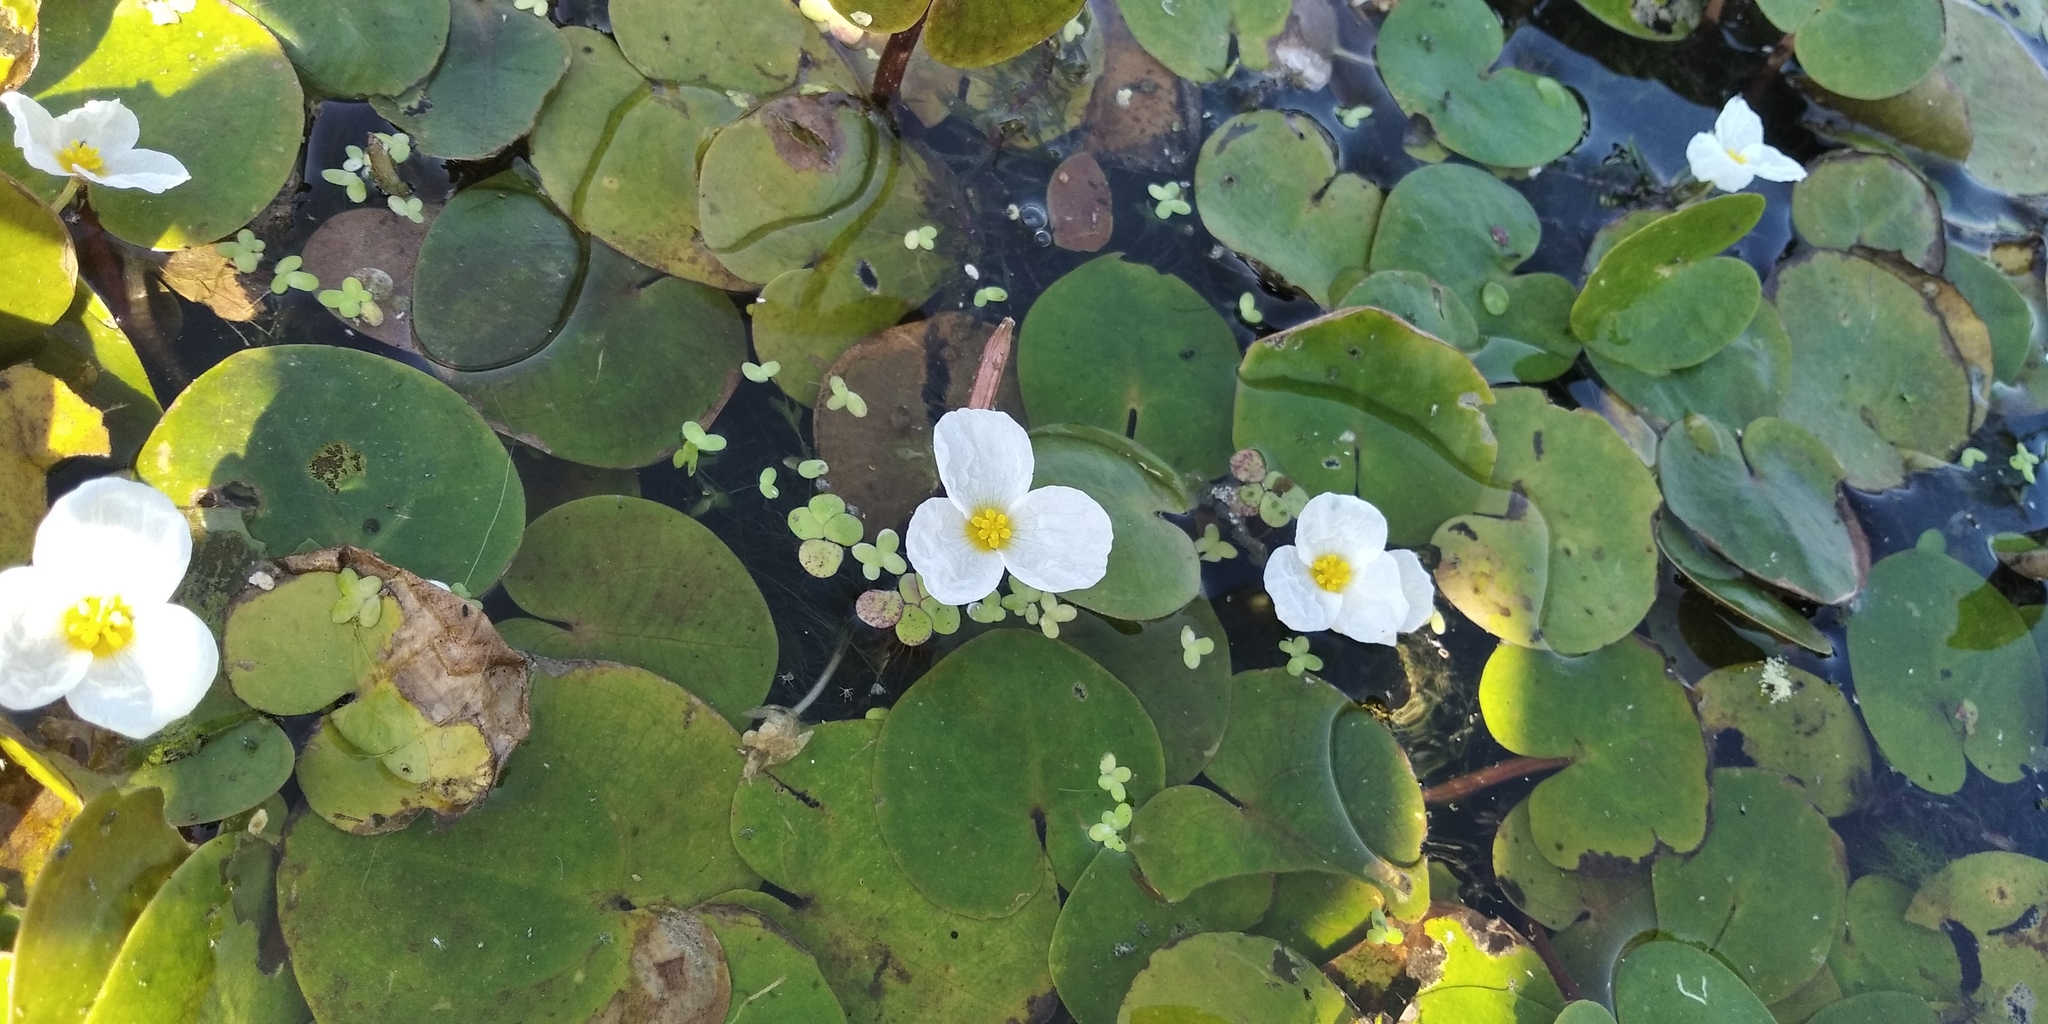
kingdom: Plantae
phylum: Tracheophyta
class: Liliopsida
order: Alismatales
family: Hydrocharitaceae
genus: Hydrocharis
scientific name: Hydrocharis morsus-ranae
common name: Frogbit
